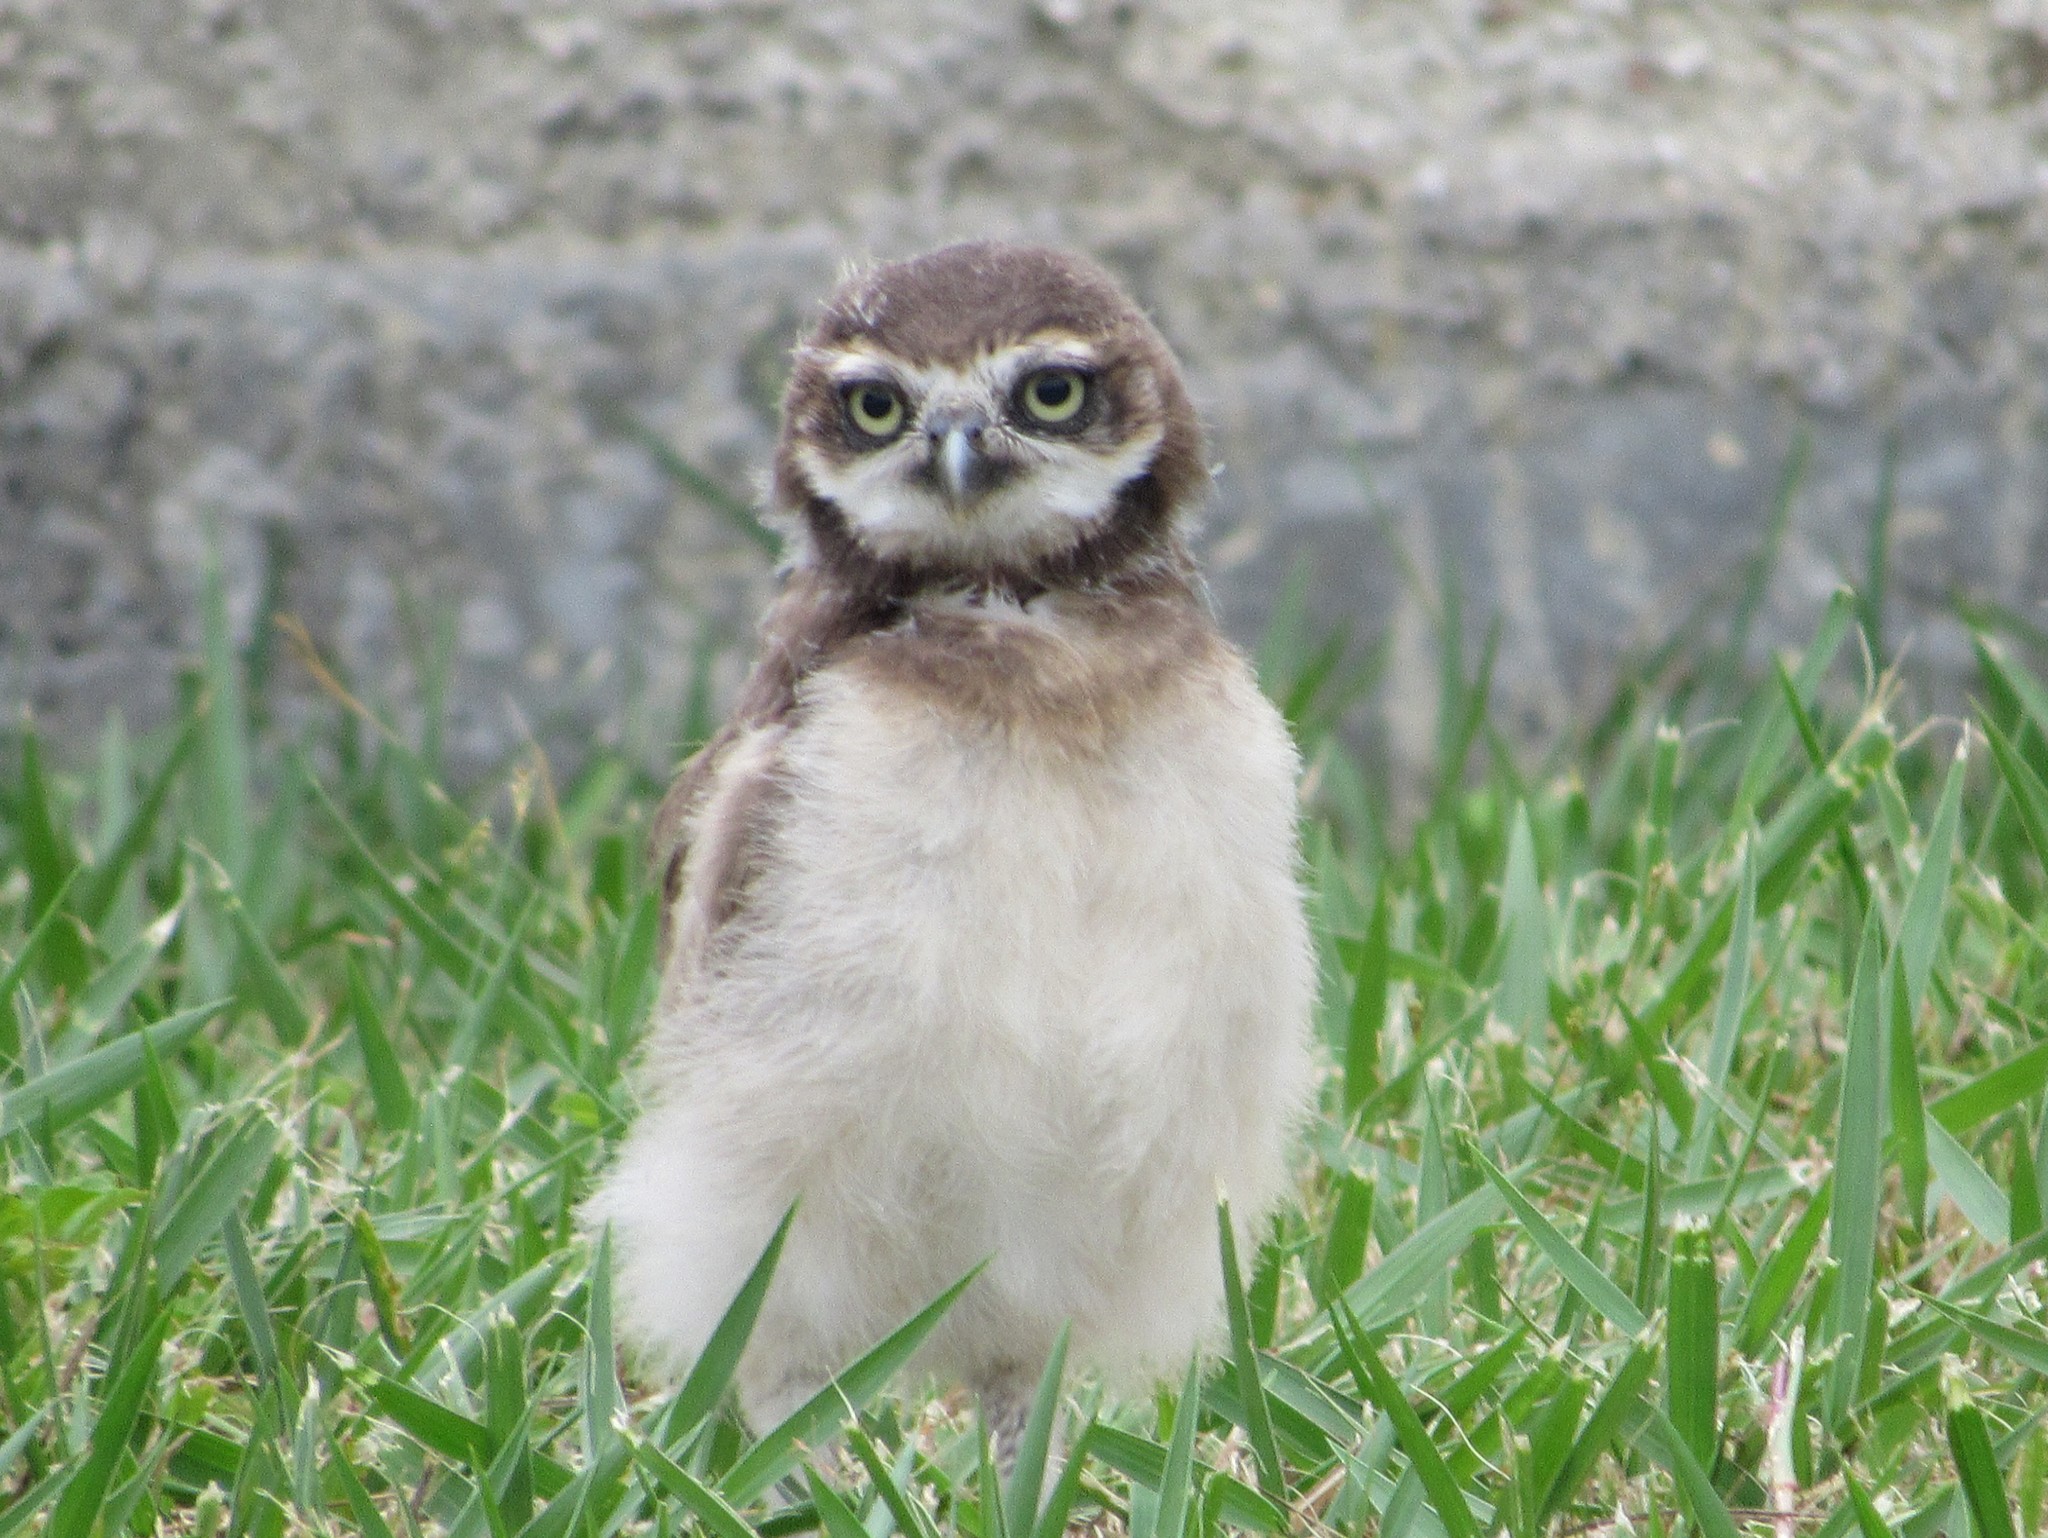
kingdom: Animalia
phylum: Chordata
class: Aves
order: Strigiformes
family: Strigidae
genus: Athene
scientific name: Athene cunicularia
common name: Burrowing owl
